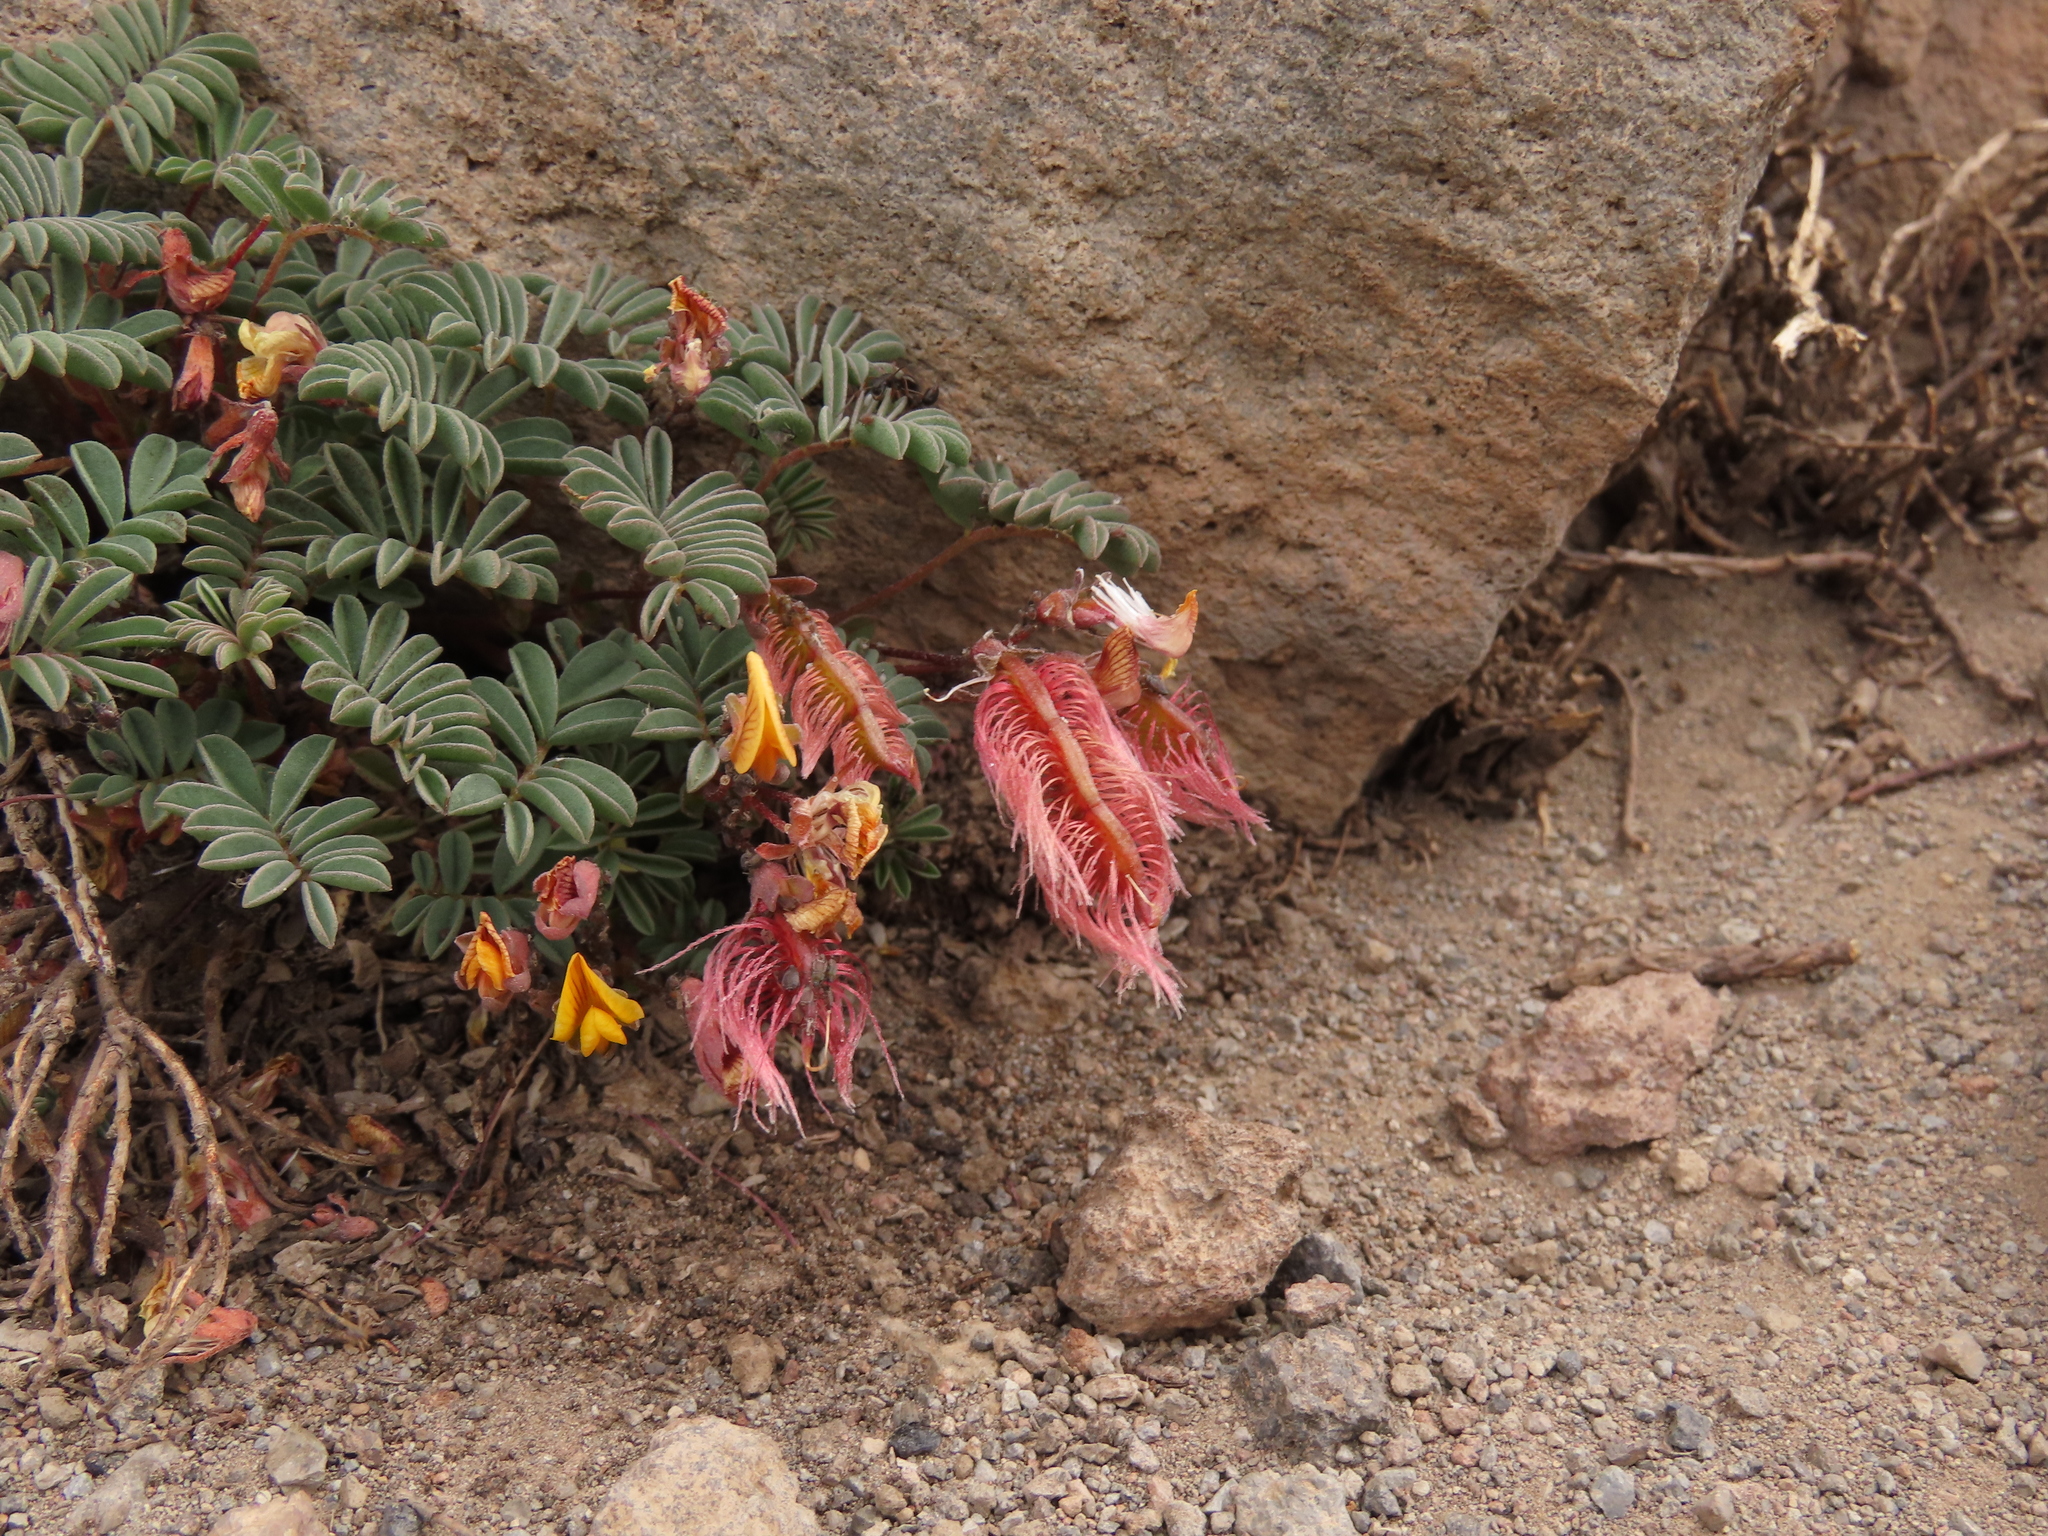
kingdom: Plantae
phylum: Tracheophyta
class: Magnoliopsida
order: Fabales
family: Fabaceae
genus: Adesmia
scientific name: Adesmia longipes
